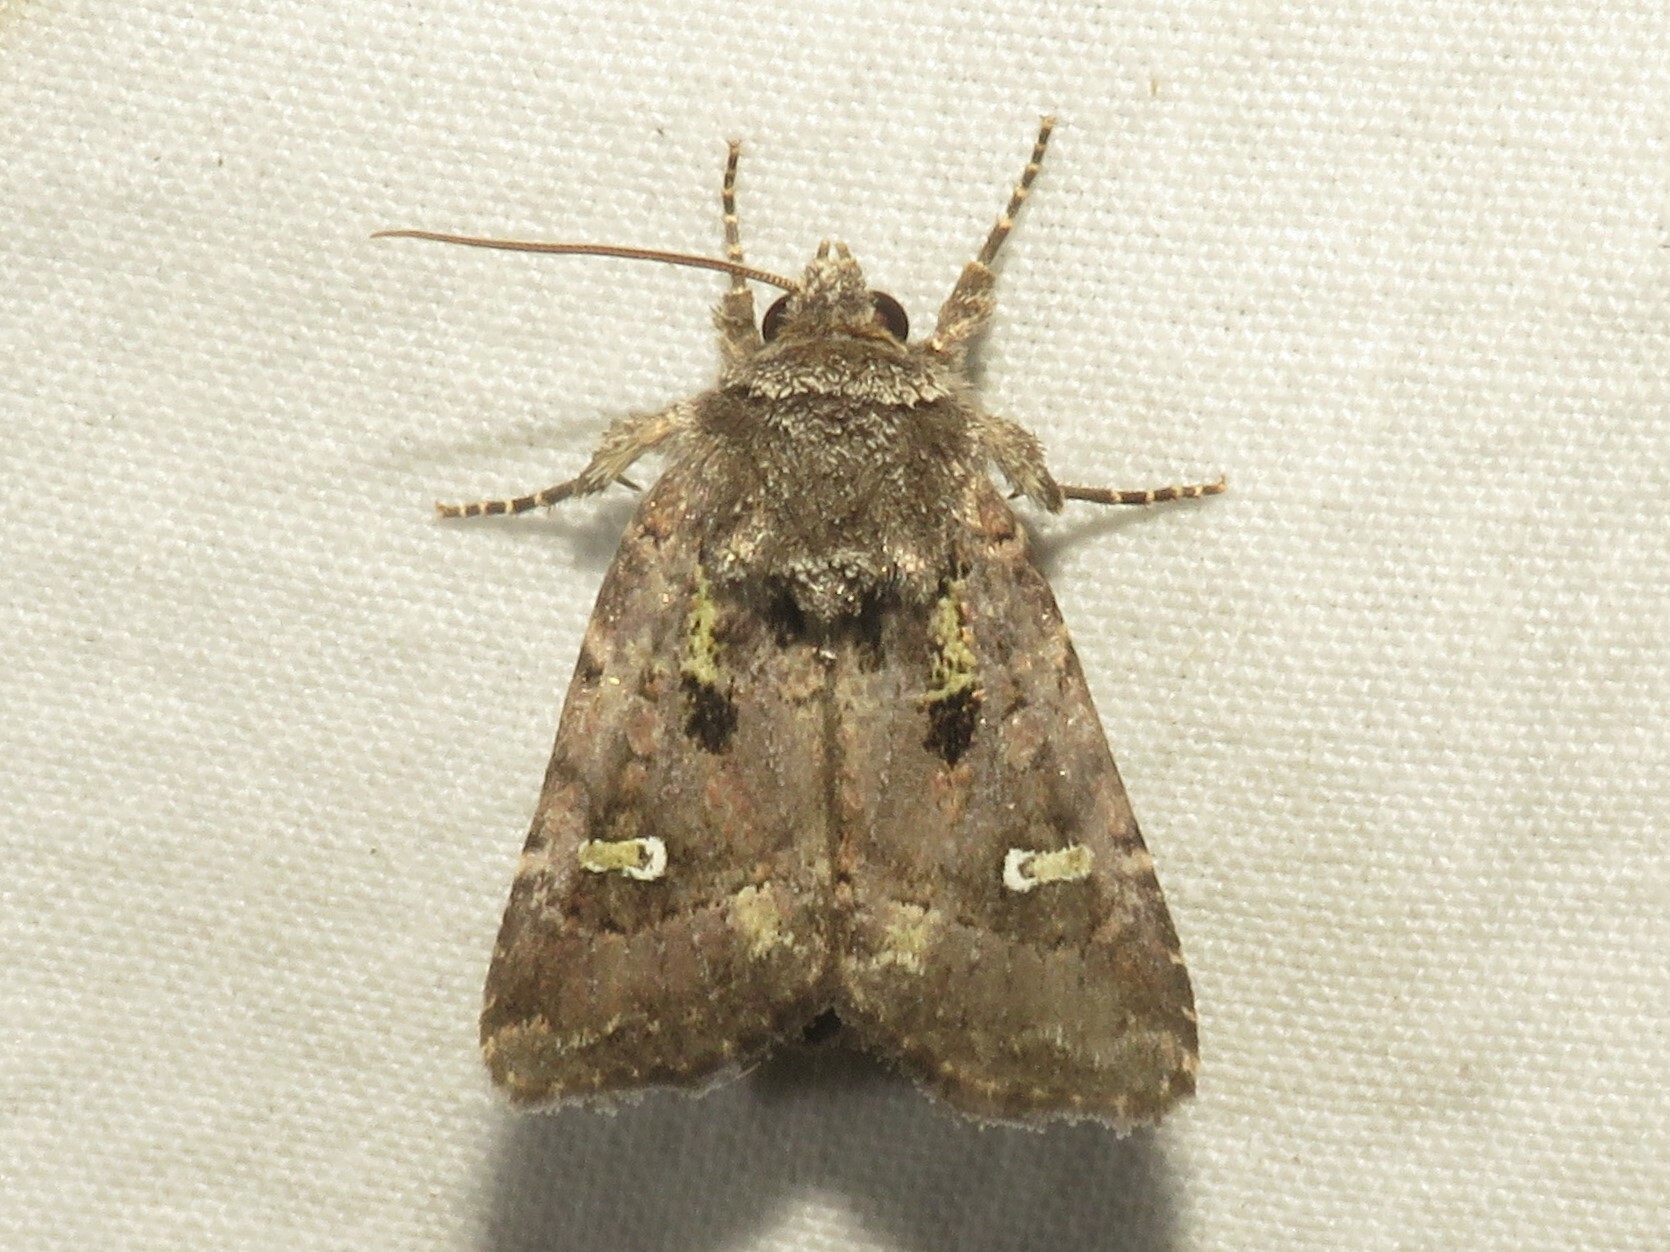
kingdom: Animalia
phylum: Arthropoda
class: Insecta
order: Lepidoptera
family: Noctuidae
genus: Lacinipolia
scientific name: Lacinipolia renigera
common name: Kidney-spotted minor
